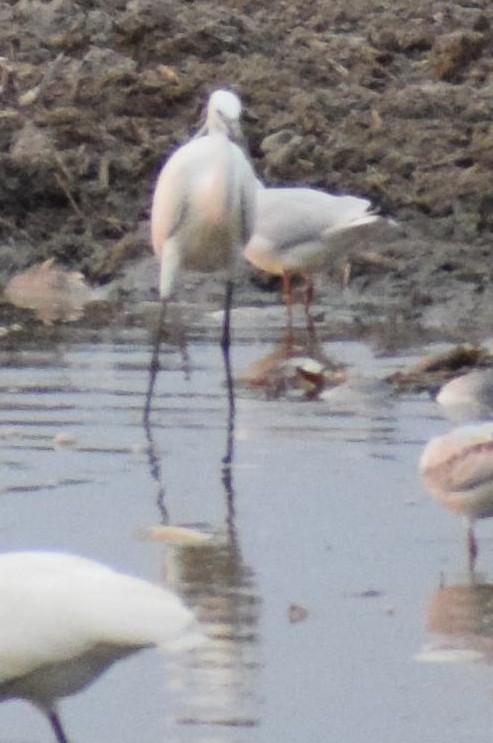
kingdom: Animalia
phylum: Chordata
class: Aves
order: Pelecaniformes
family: Ardeidae
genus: Egretta
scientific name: Egretta garzetta
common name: Little egret
